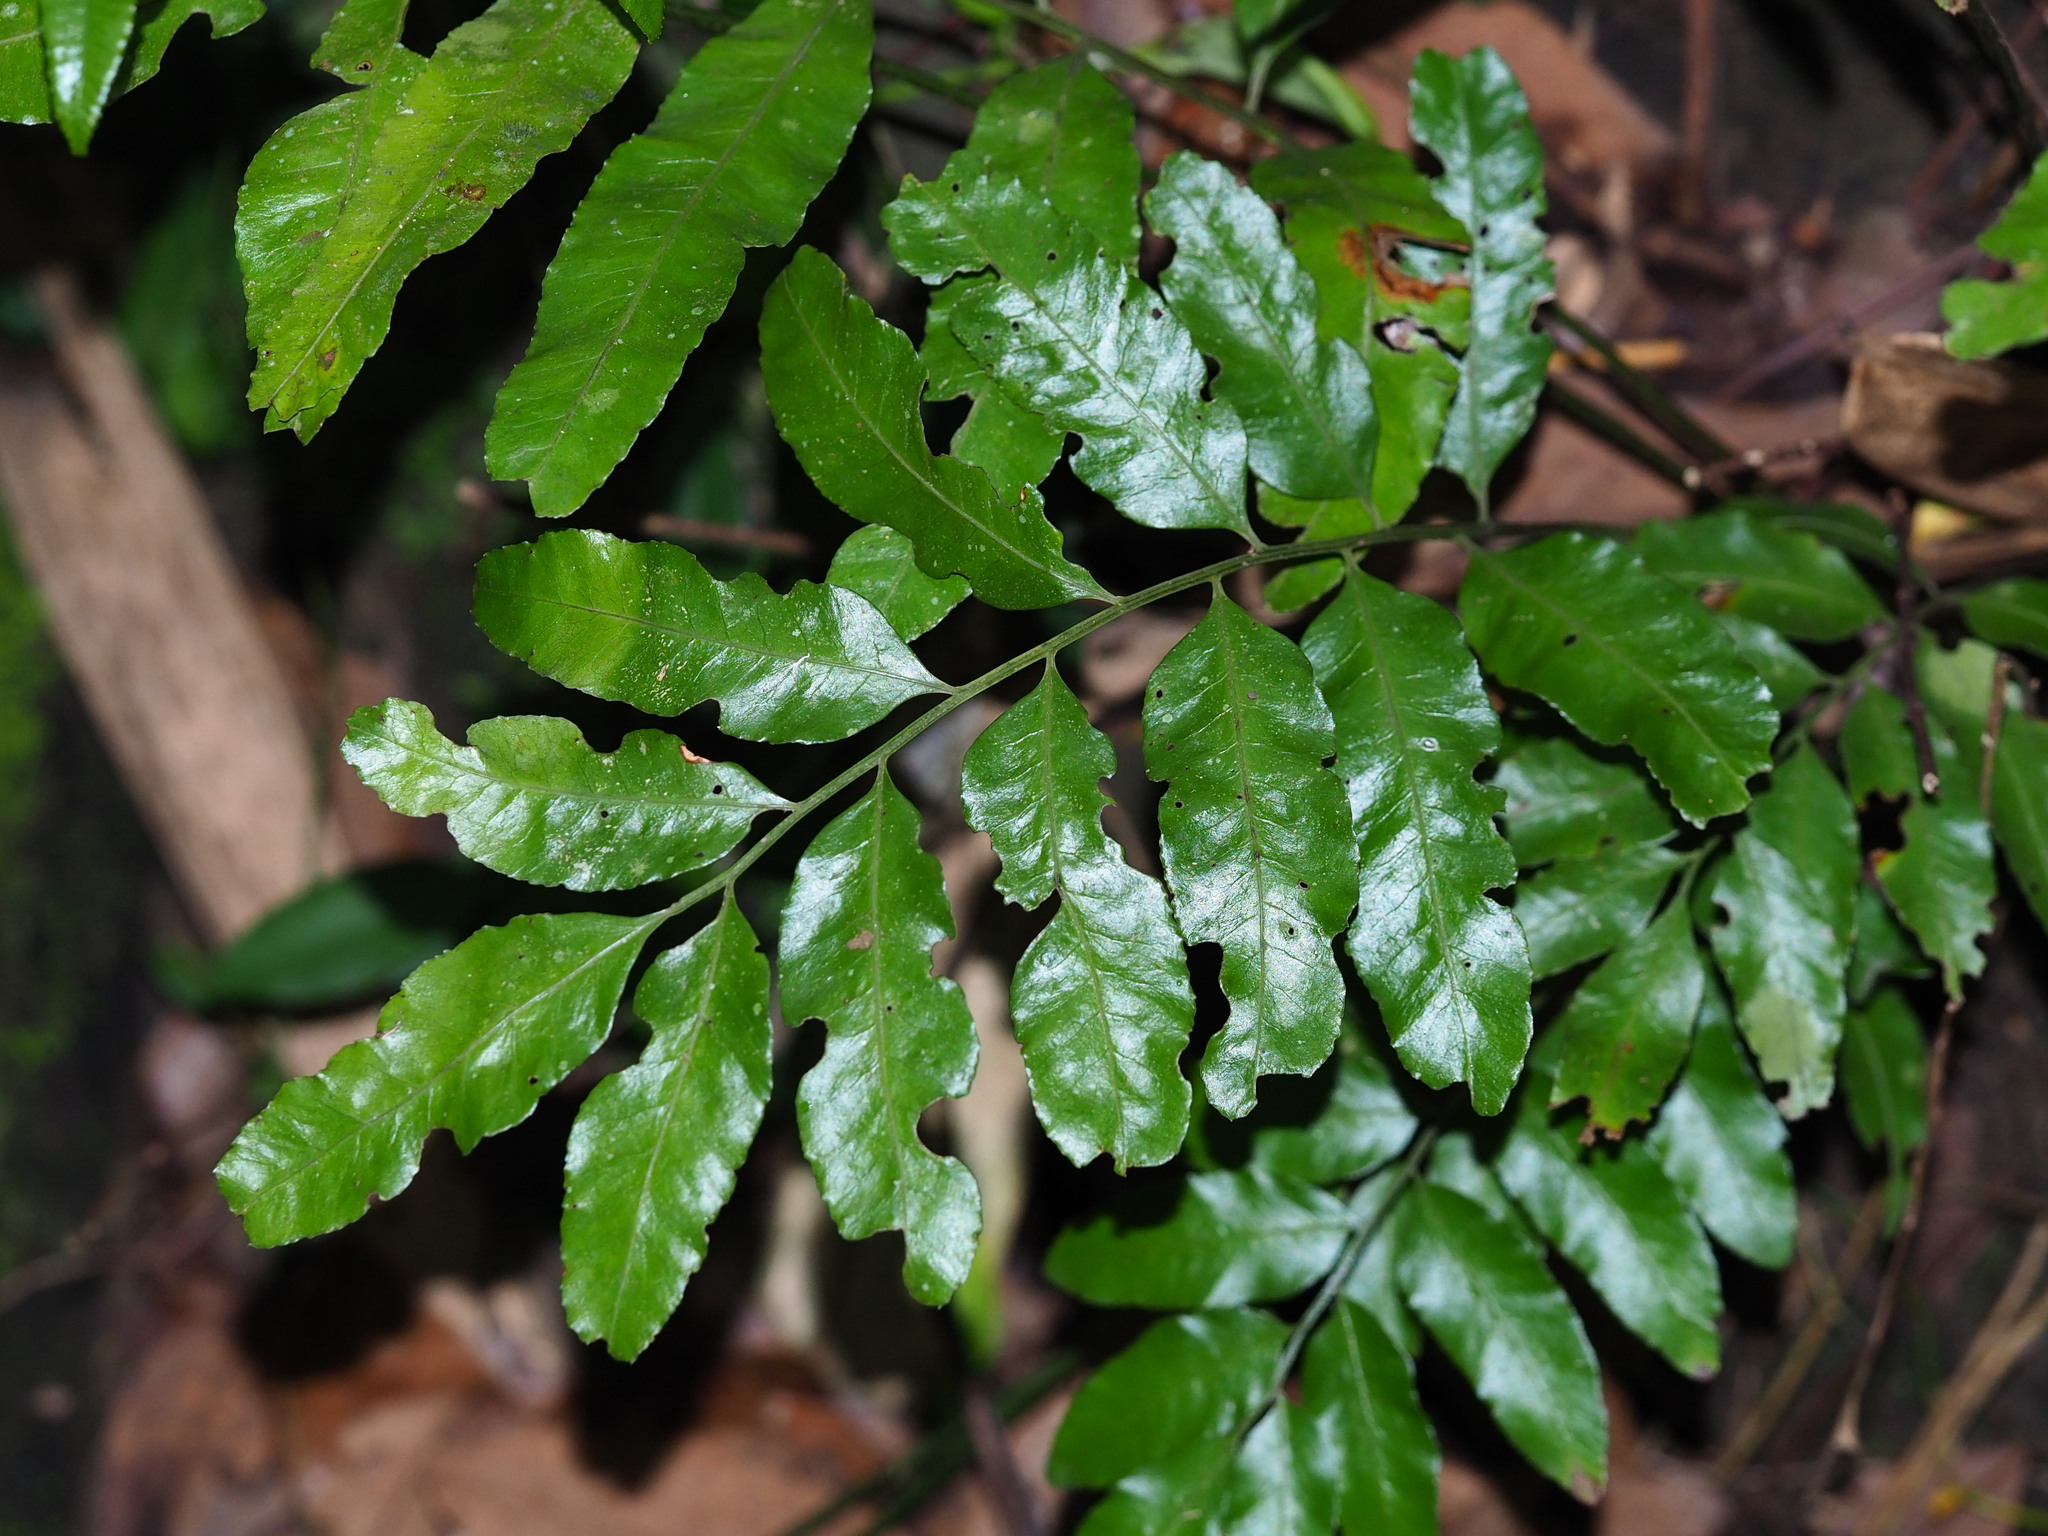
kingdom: Plantae
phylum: Tracheophyta
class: Polypodiopsida
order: Polypodiales
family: Dryopteridaceae
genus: Bolbitis
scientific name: Bolbitis scalpturata
